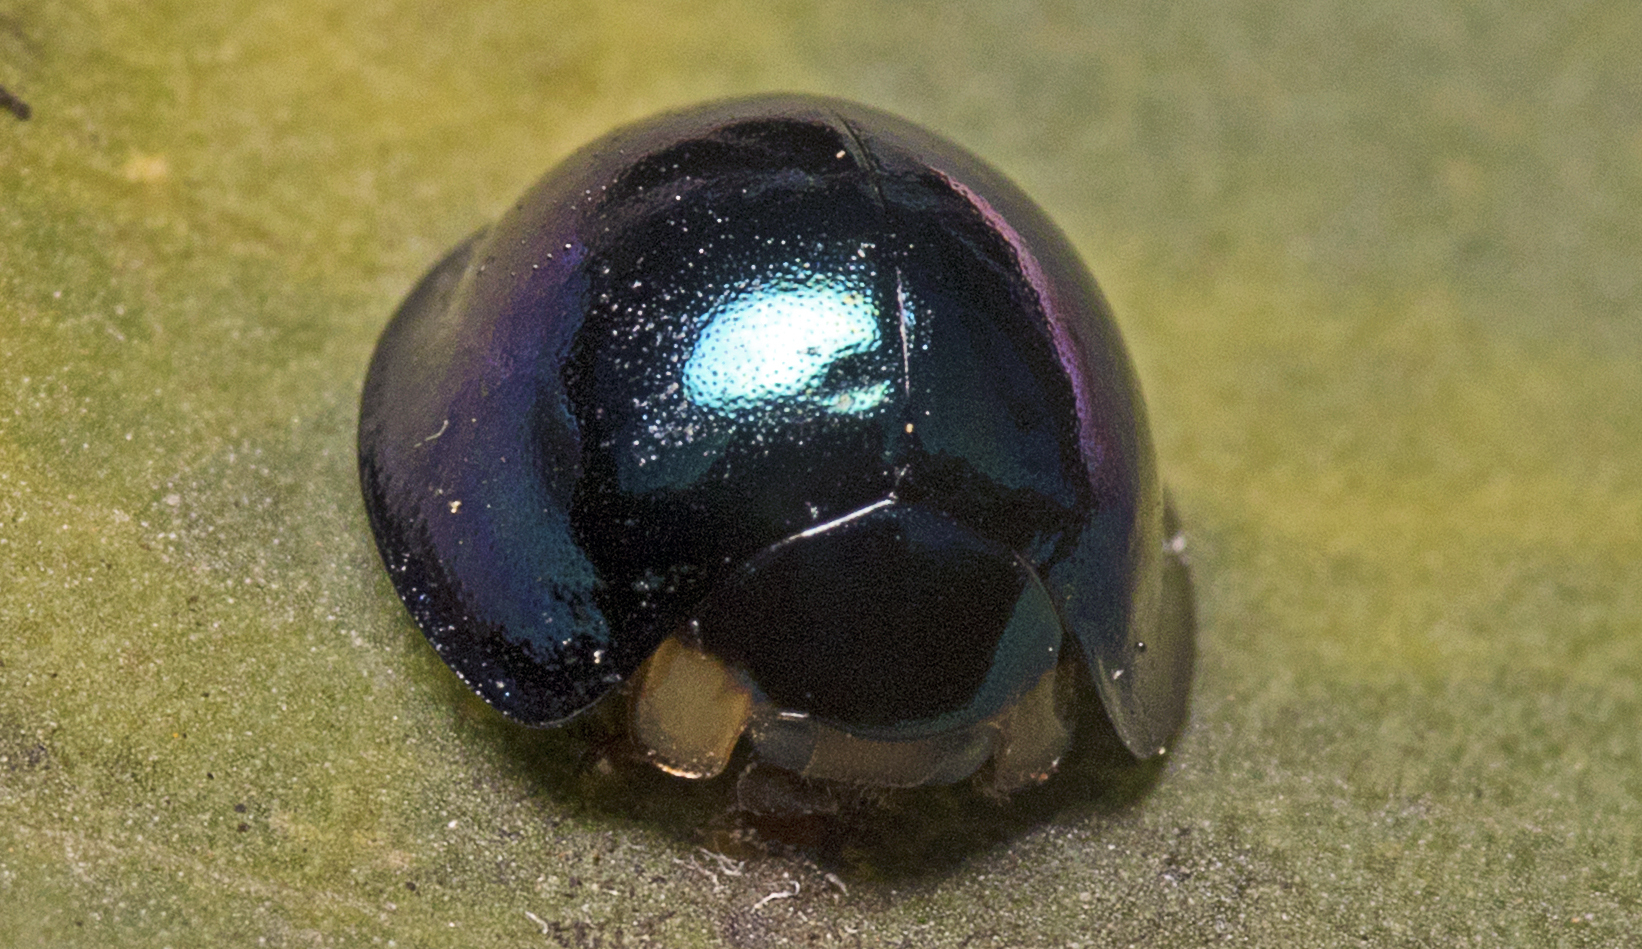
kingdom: Animalia
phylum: Arthropoda
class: Insecta
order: Coleoptera
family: Coccinellidae
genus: Halmus
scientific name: Halmus chalybeus
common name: Steel blue ladybird beetle
